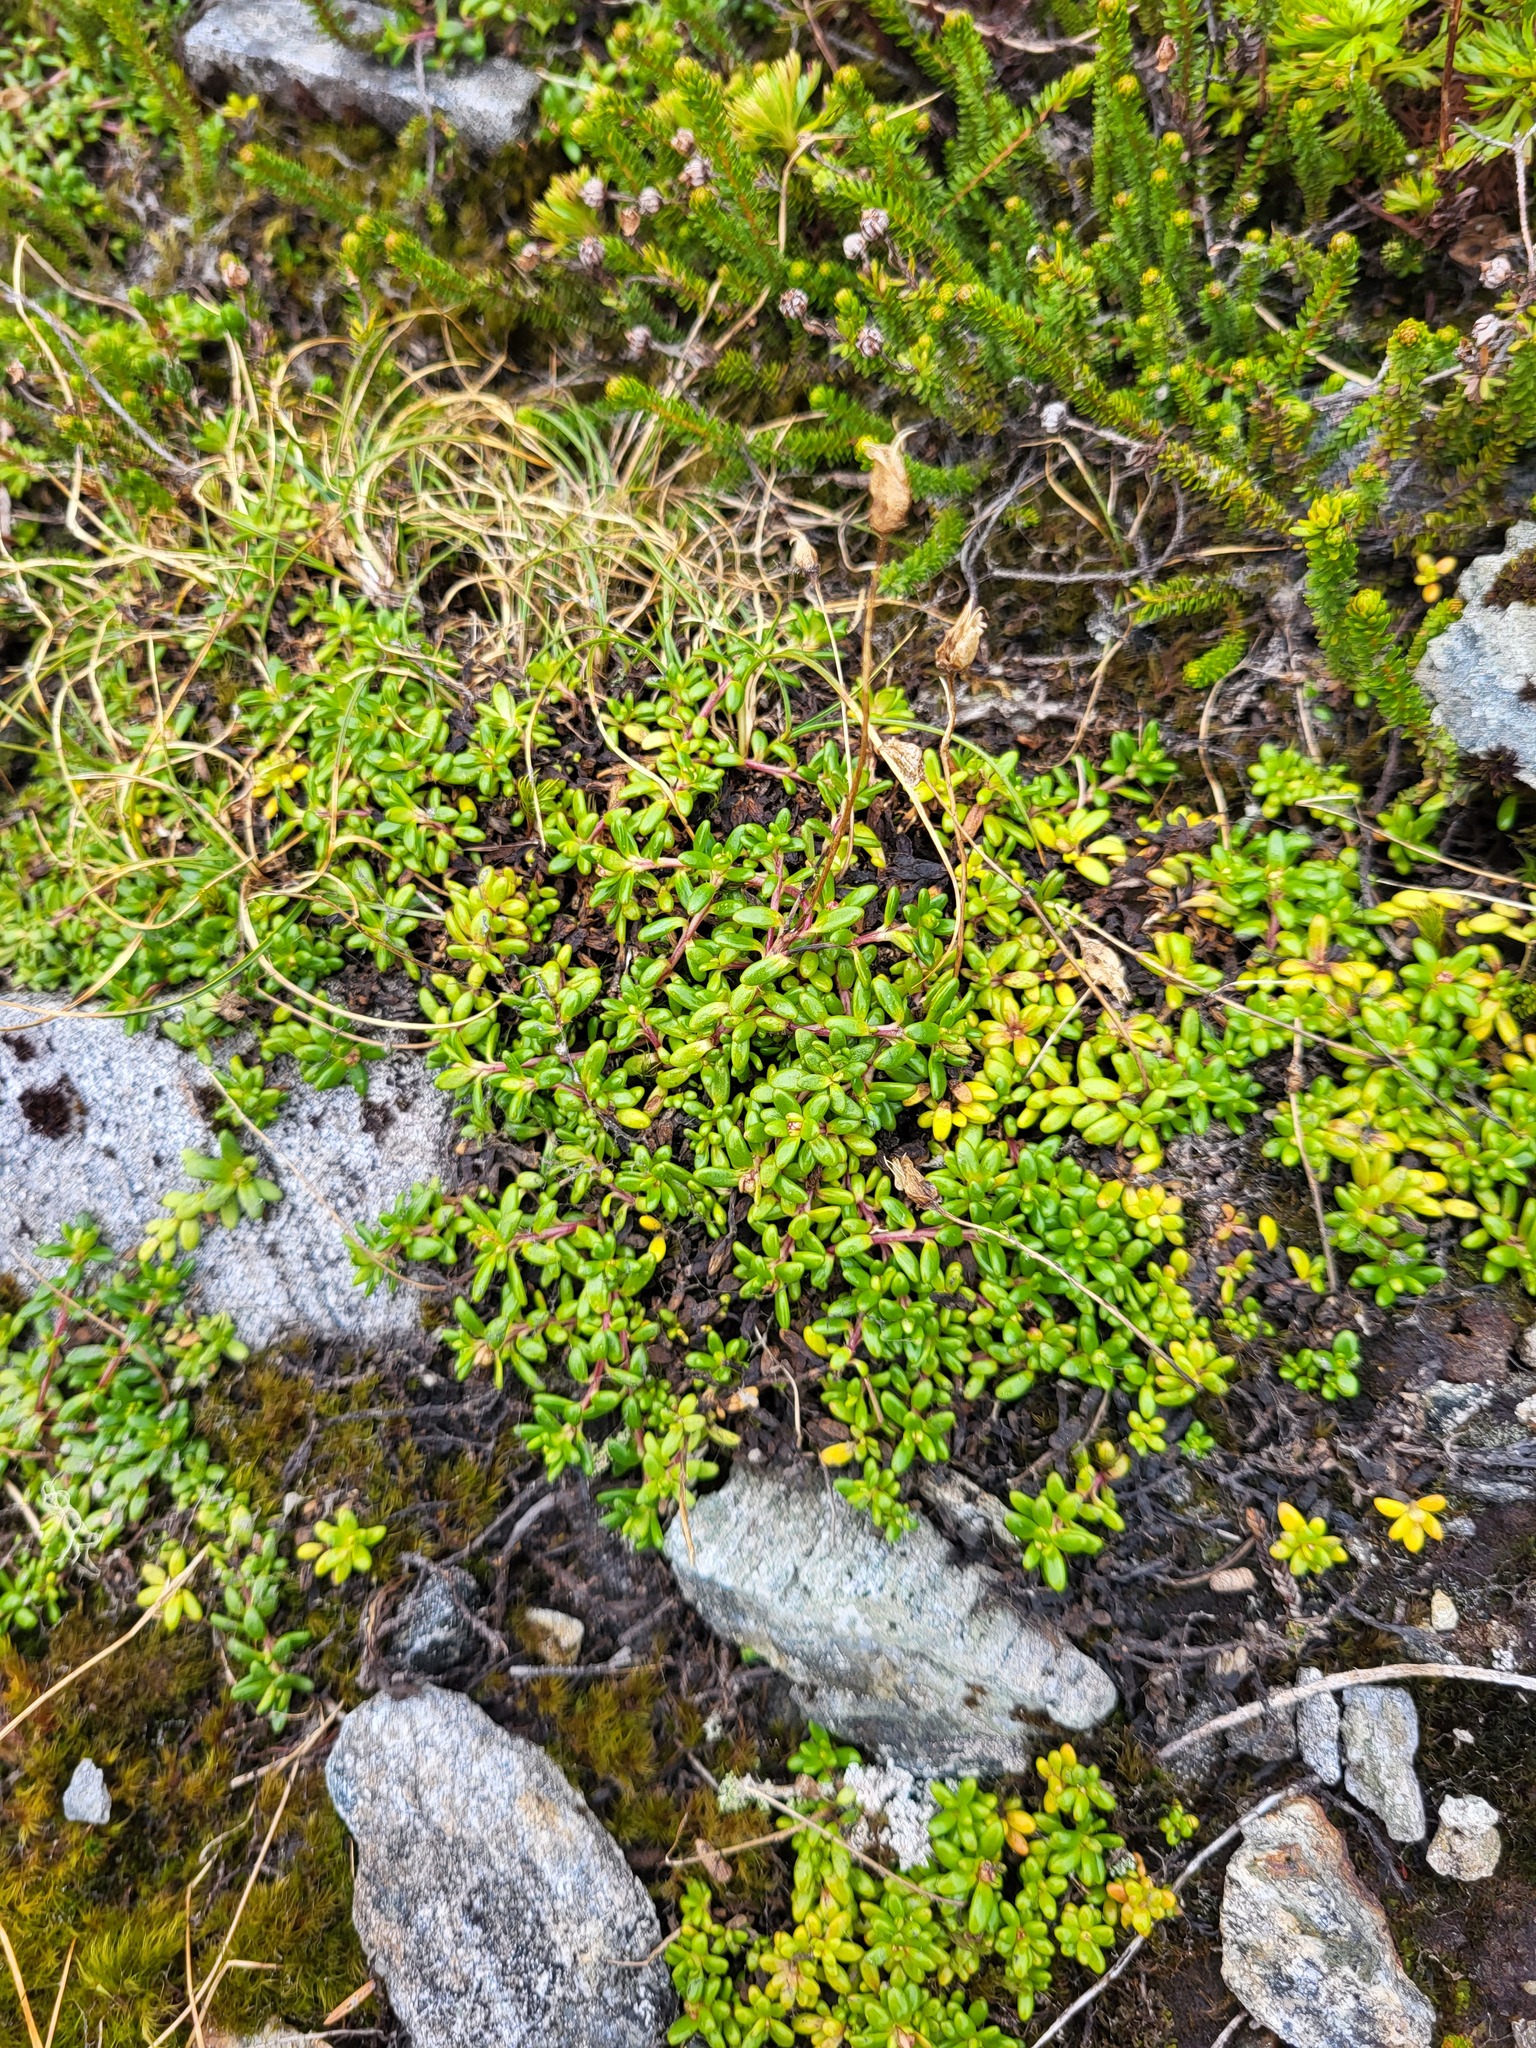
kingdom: Plantae
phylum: Tracheophyta
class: Magnoliopsida
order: Saxifragales
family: Saxifragaceae
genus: Micranthes
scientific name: Micranthes tolmiei
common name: Tolmie's saxifrage
